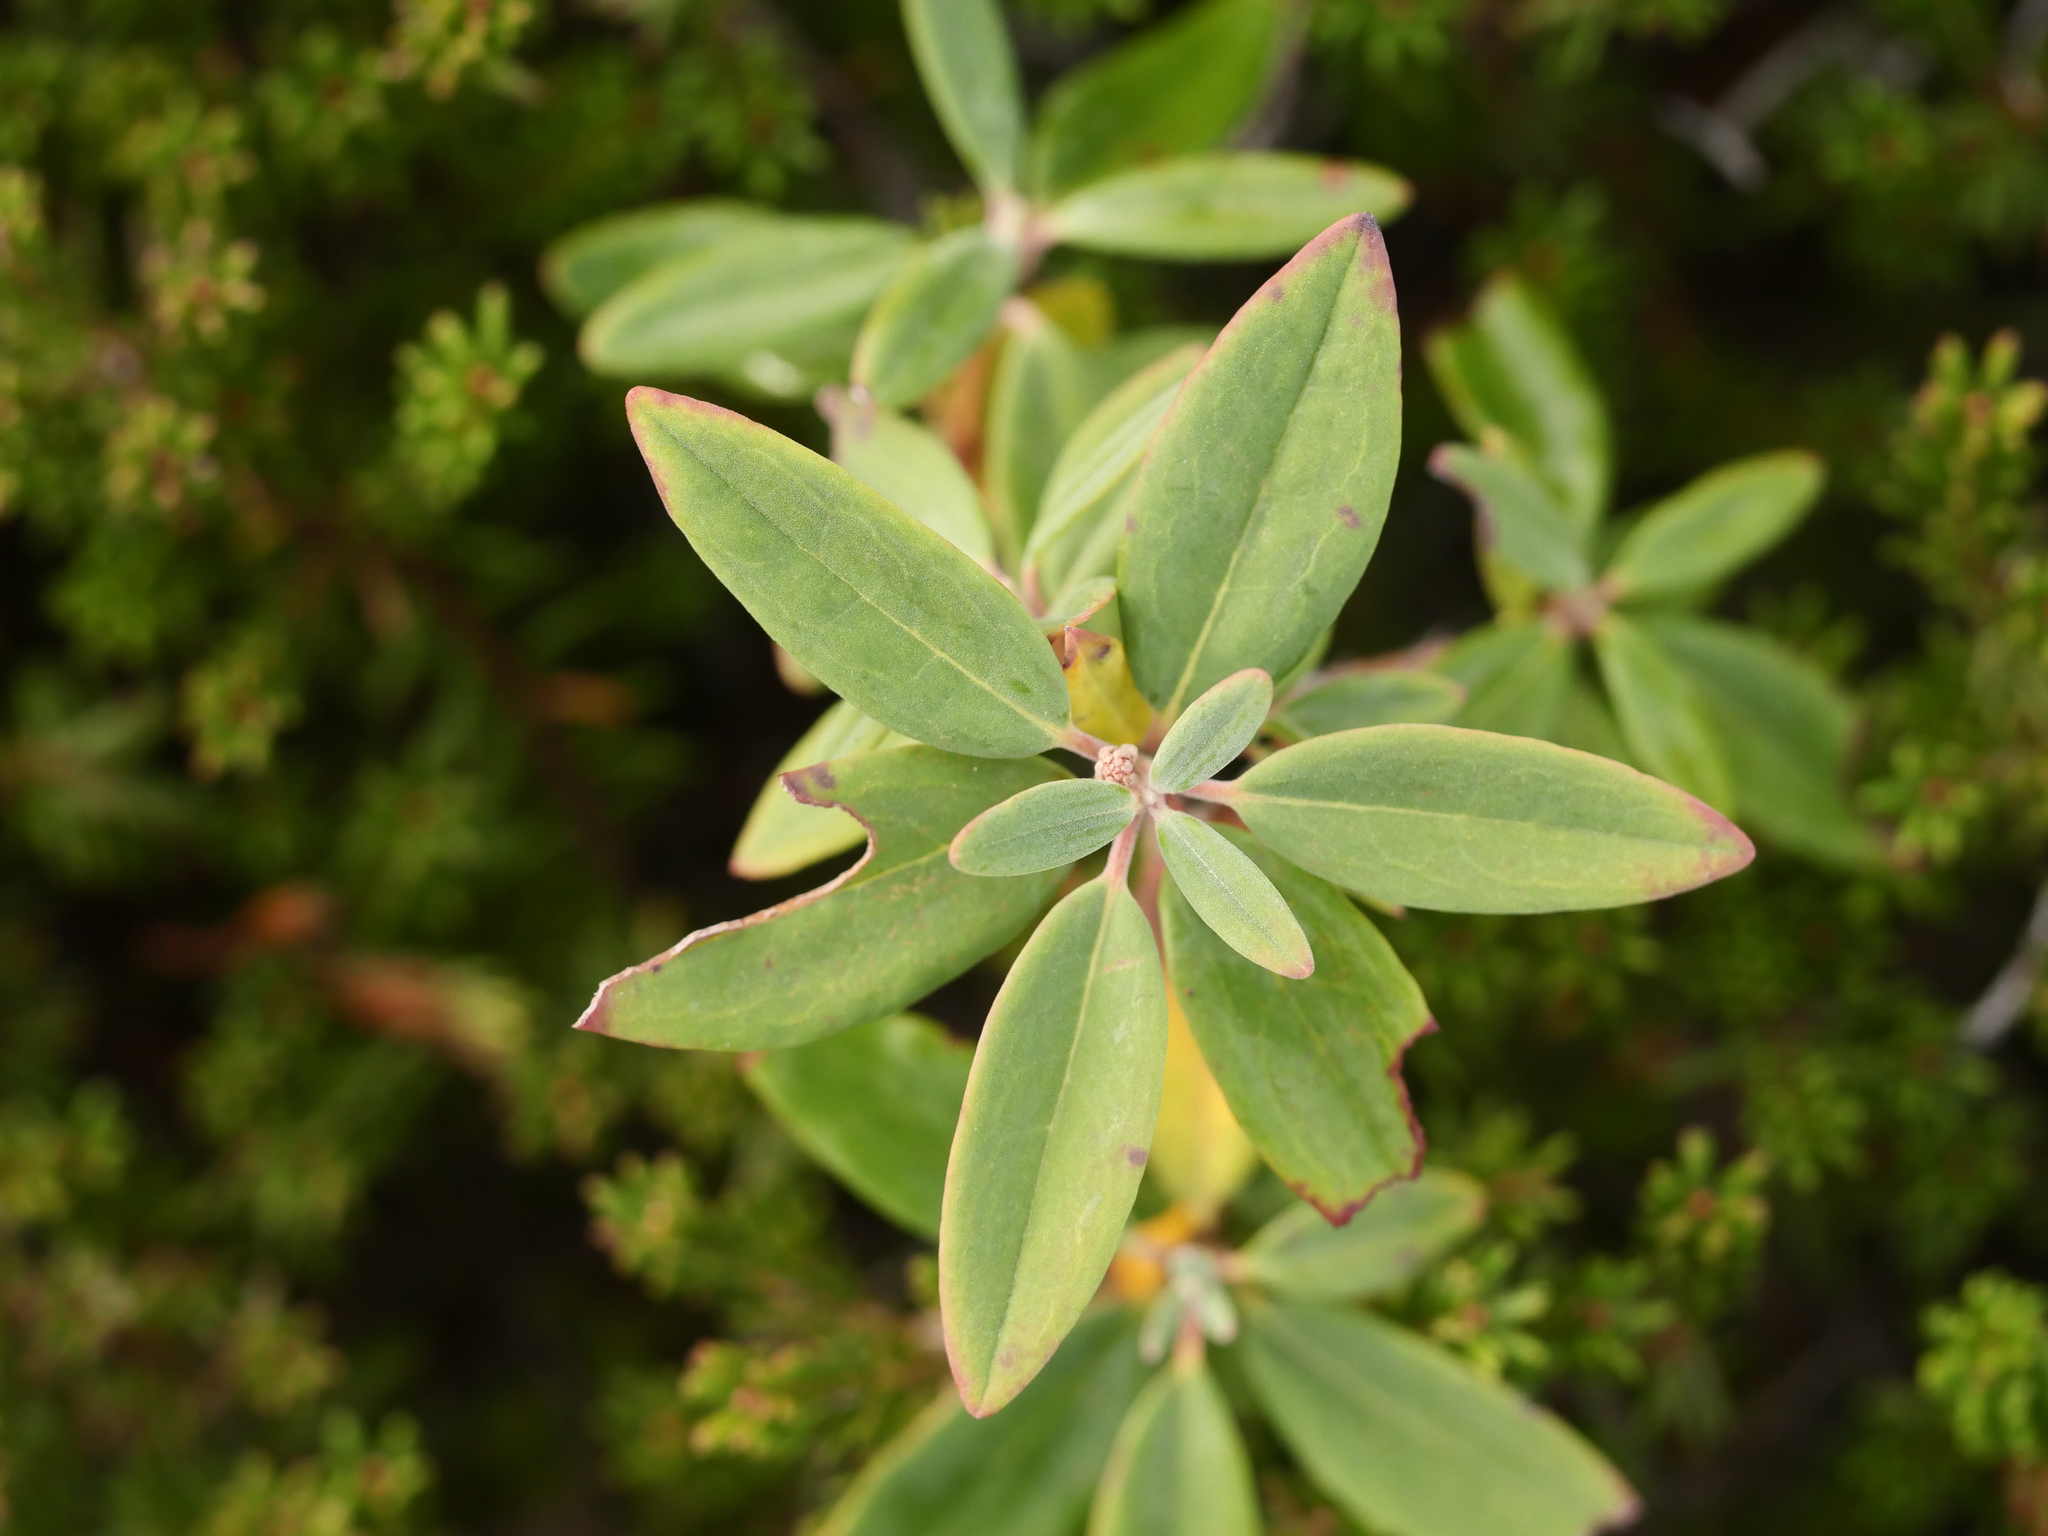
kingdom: Plantae
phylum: Tracheophyta
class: Magnoliopsida
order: Ericales
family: Ericaceae
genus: Kalmia
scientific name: Kalmia angustifolia
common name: Sheep-laurel
